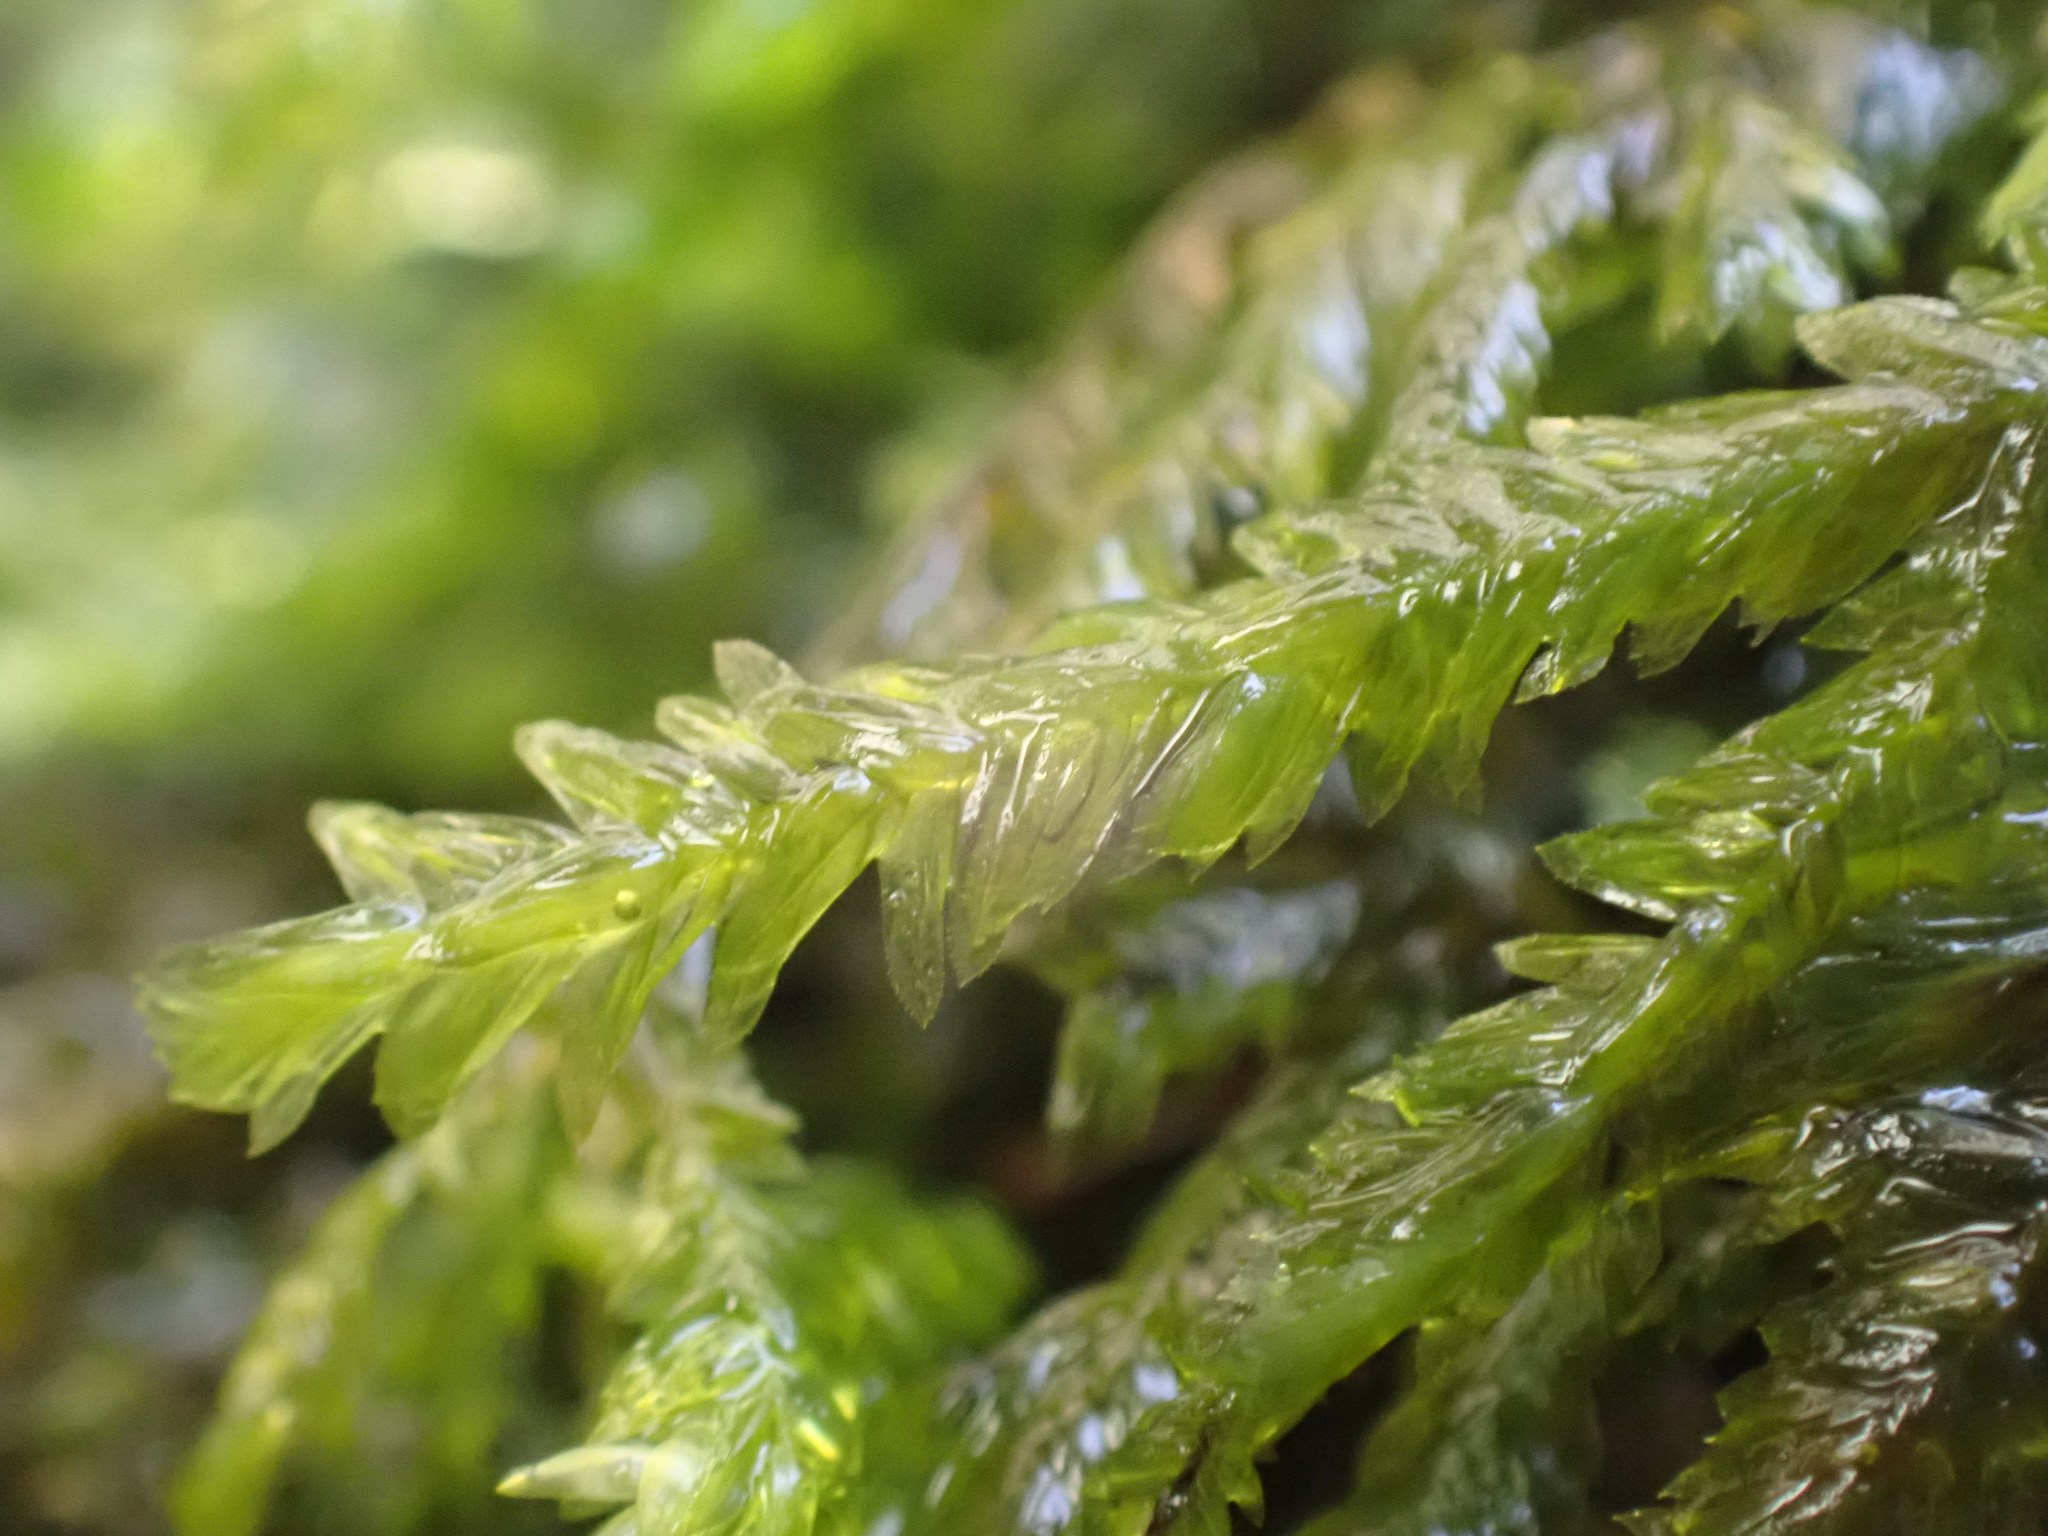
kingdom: Plantae
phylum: Bryophyta
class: Bryopsida
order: Hypnales
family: Neckeraceae
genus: Dannorrisia
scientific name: Dannorrisia bigelovii
